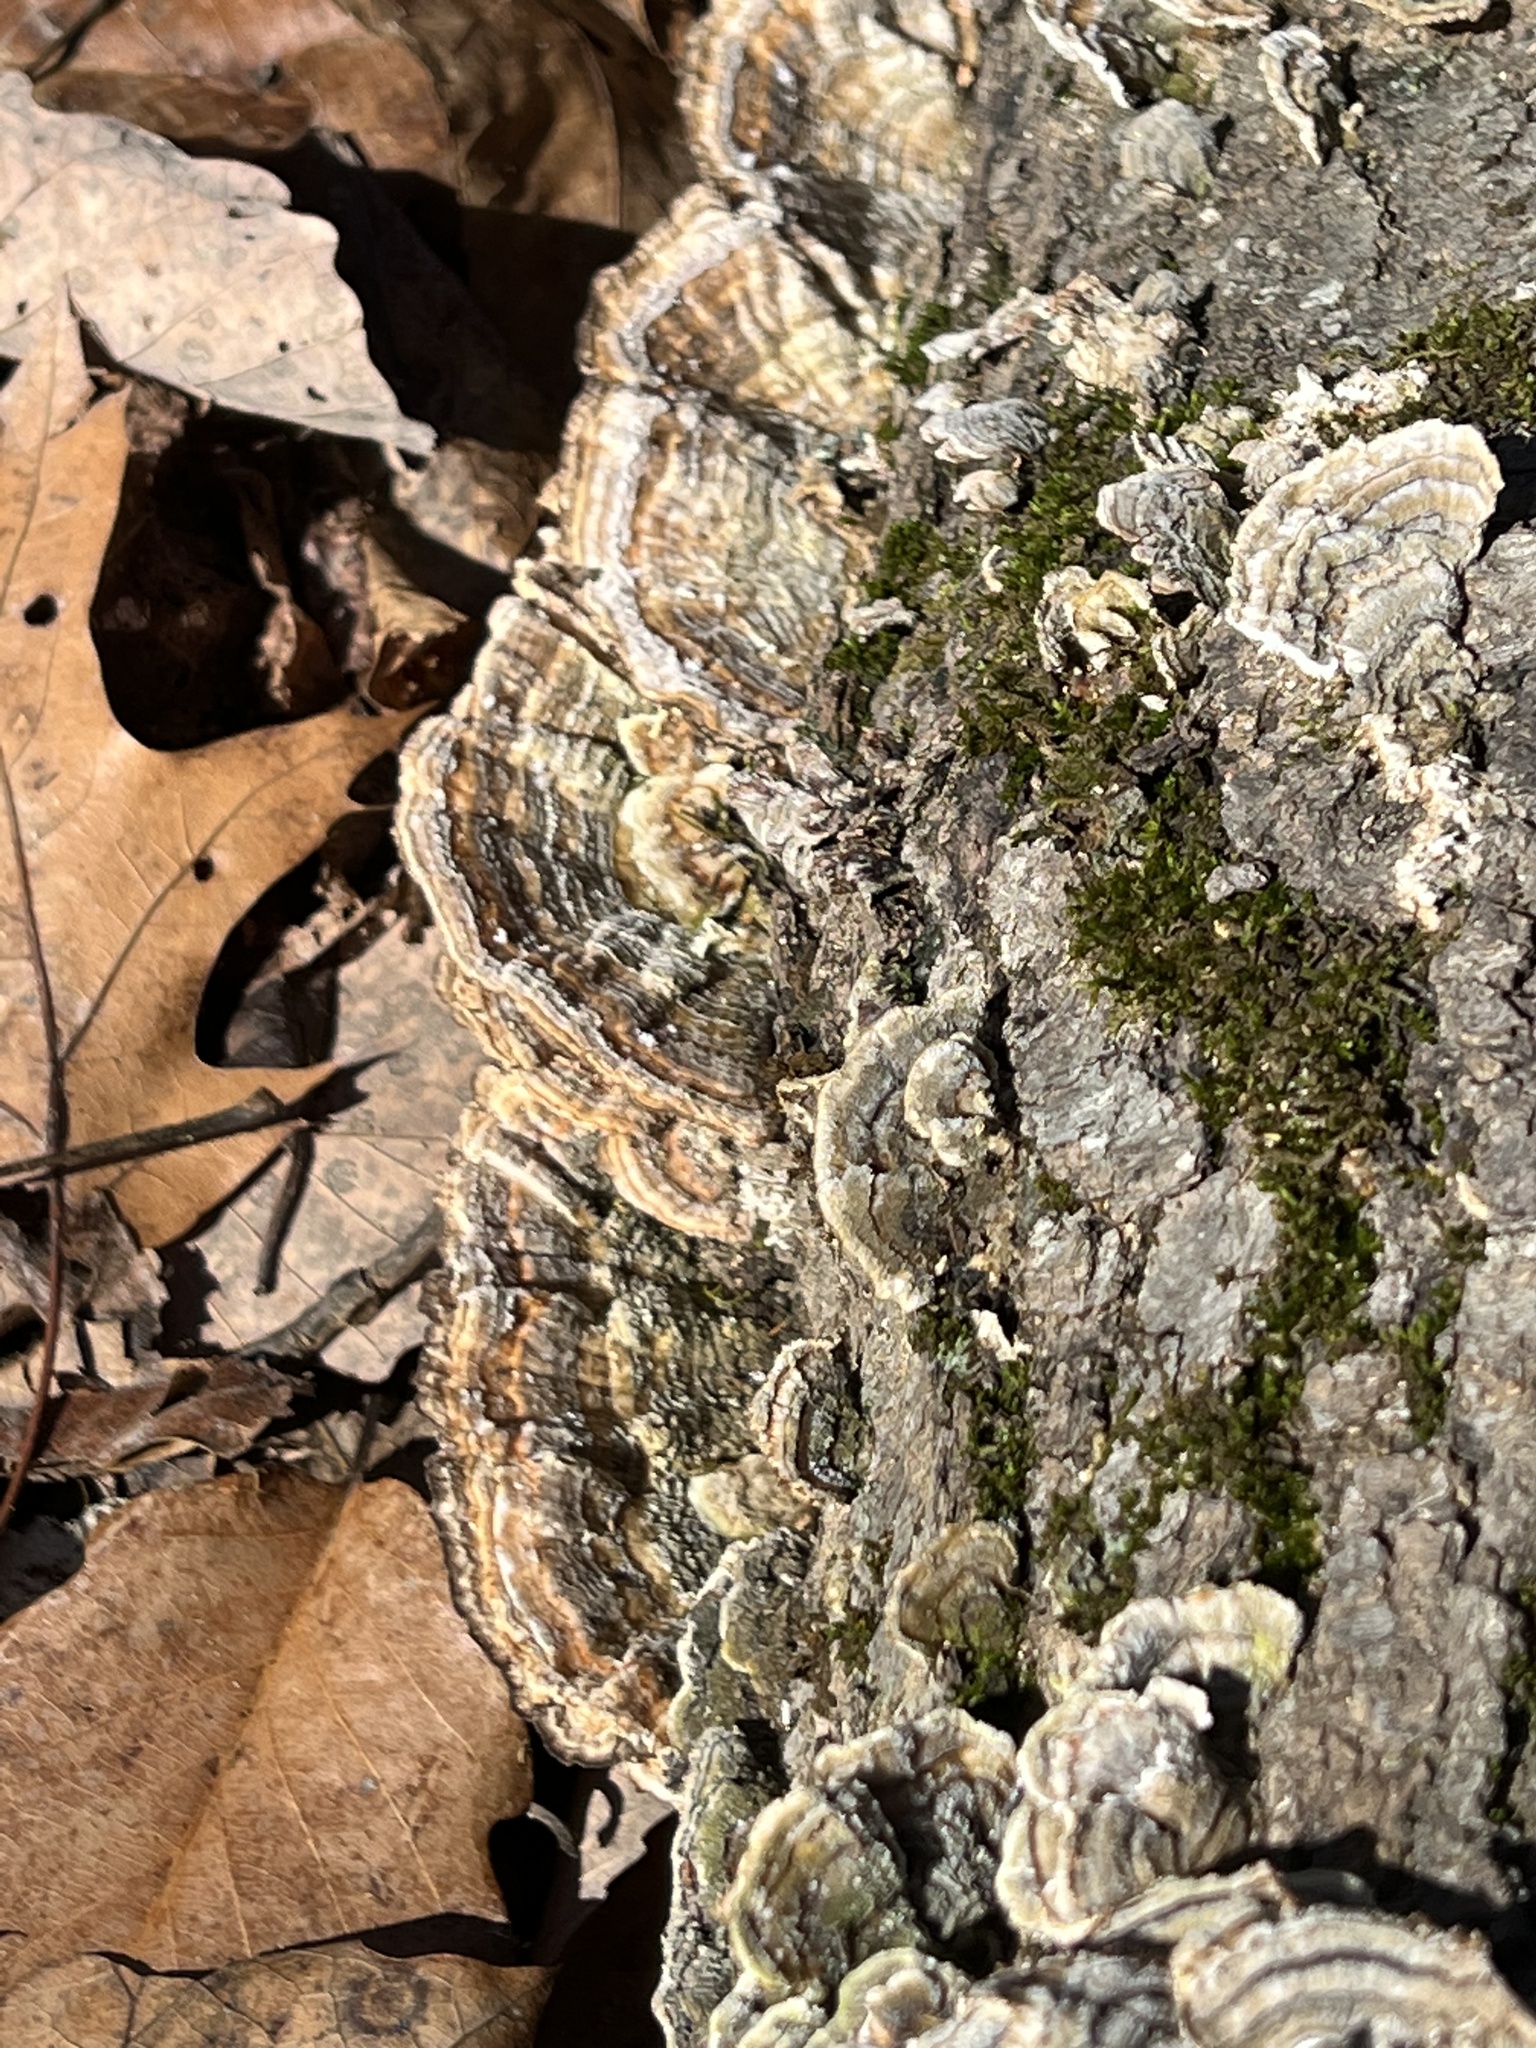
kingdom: Fungi
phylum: Basidiomycota
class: Agaricomycetes
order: Polyporales
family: Polyporaceae
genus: Lenzites
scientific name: Lenzites betulinus
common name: Birch mazegill
